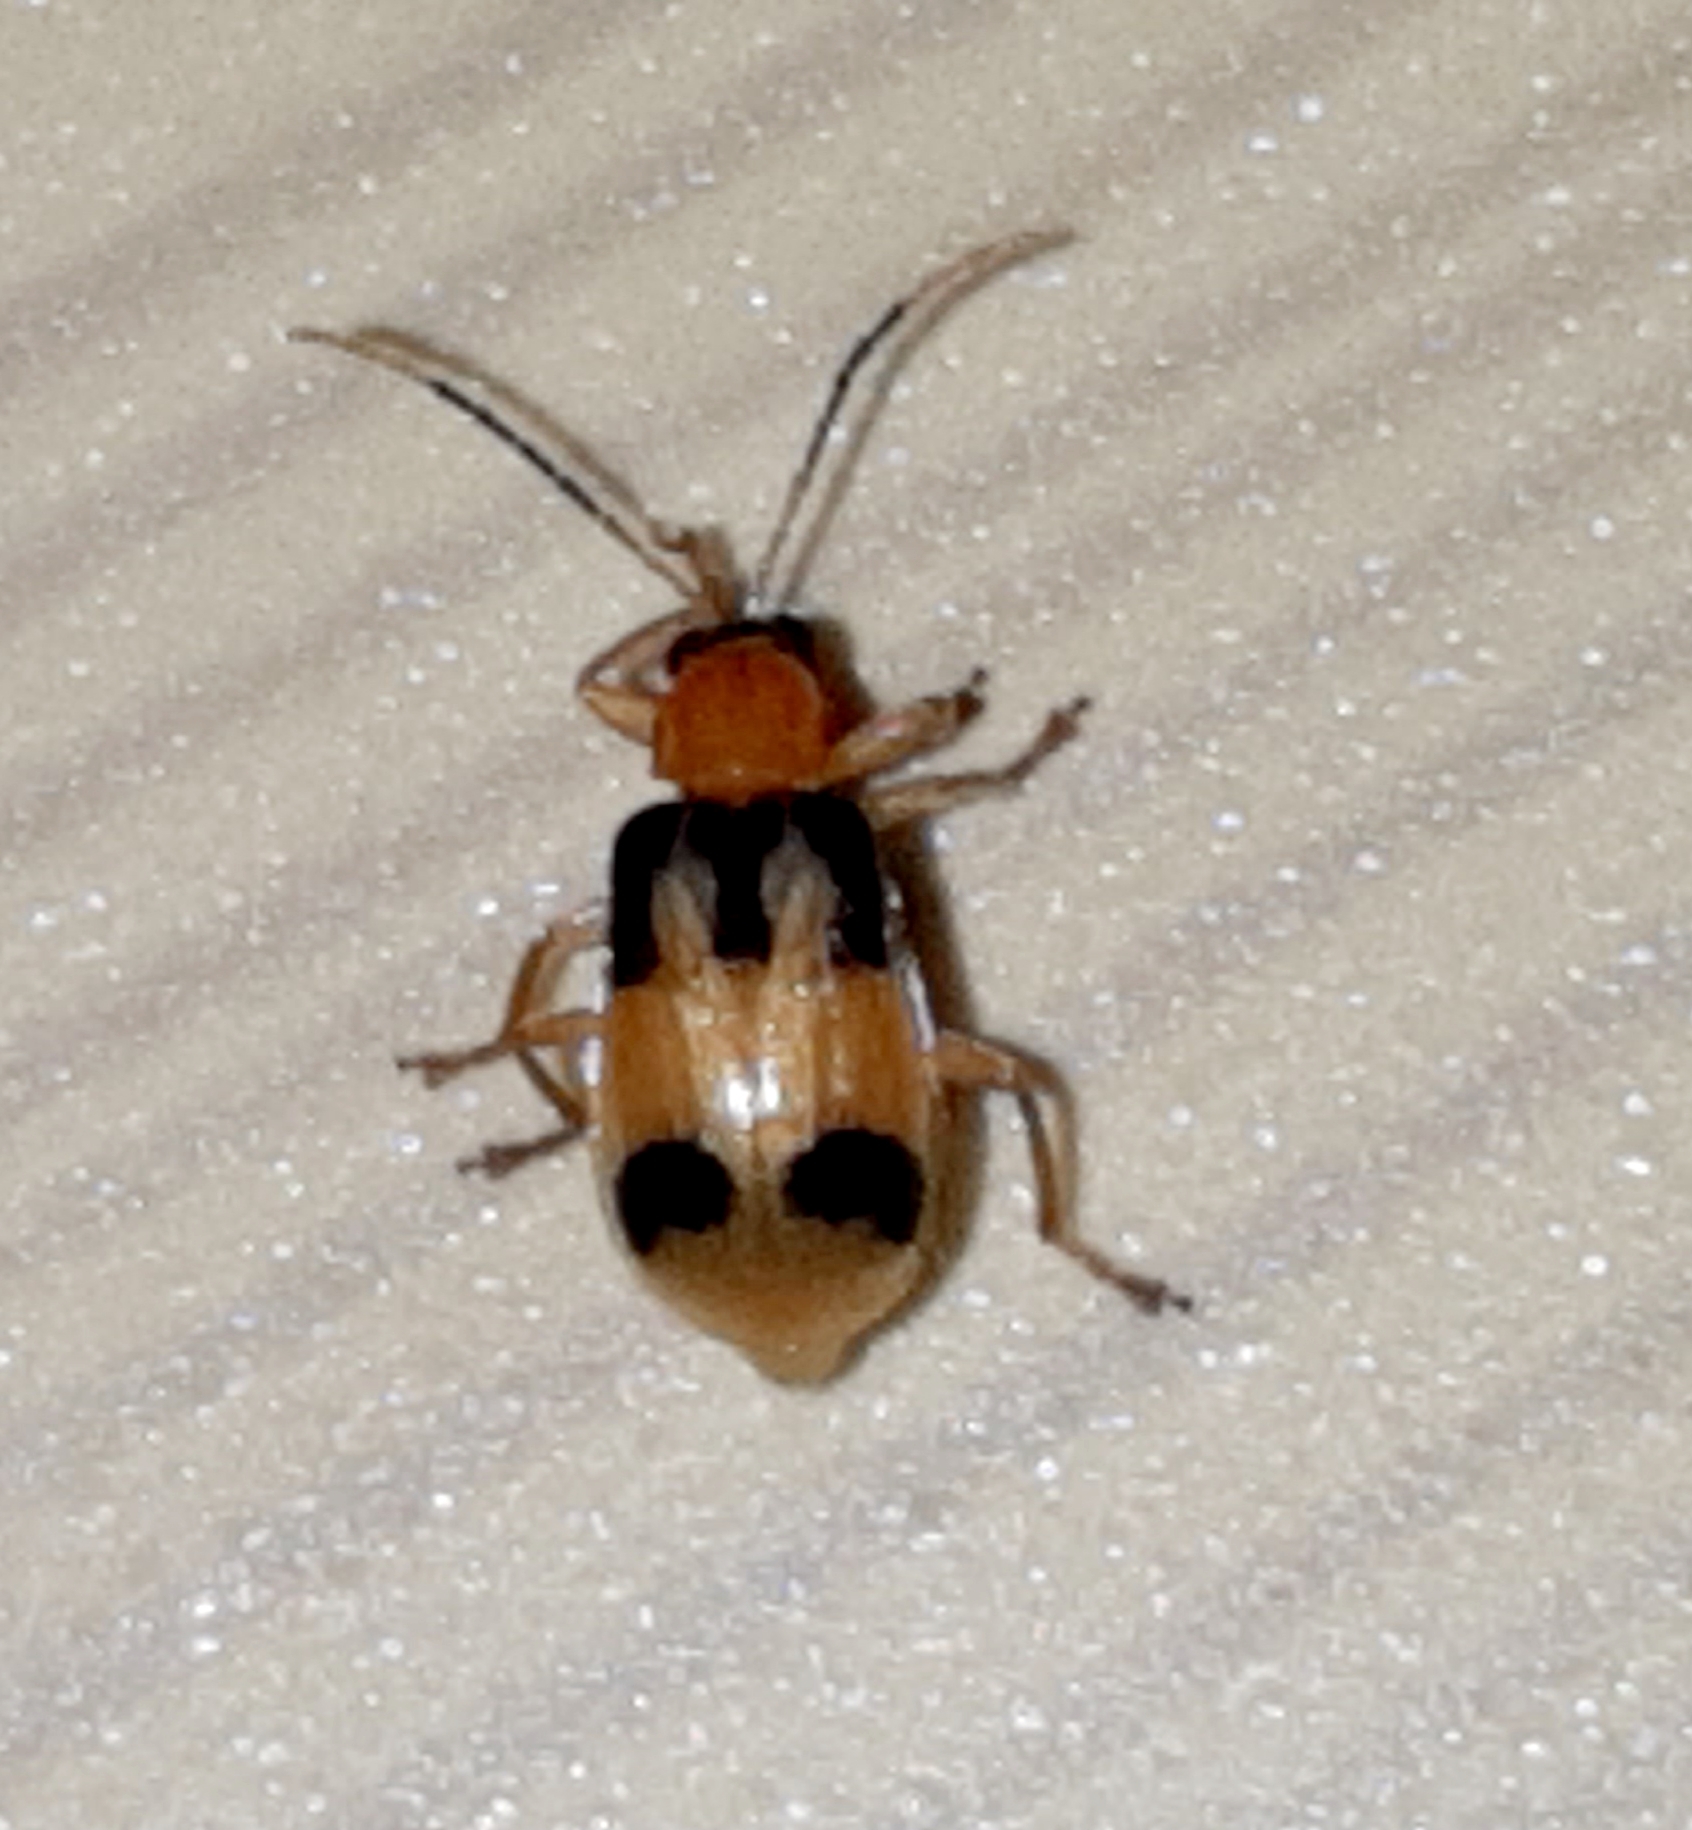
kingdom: Animalia
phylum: Arthropoda
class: Insecta
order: Coleoptera
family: Chrysomelidae
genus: Diabrotica
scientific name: Diabrotica sel
